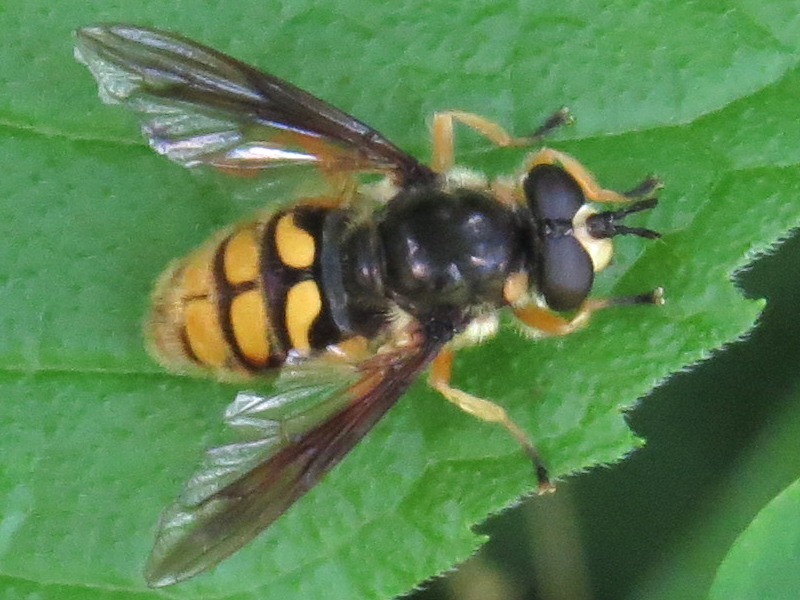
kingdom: Animalia
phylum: Arthropoda
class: Insecta
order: Diptera
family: Syrphidae
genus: Somula
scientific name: Somula decora
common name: Spotted wood fly
